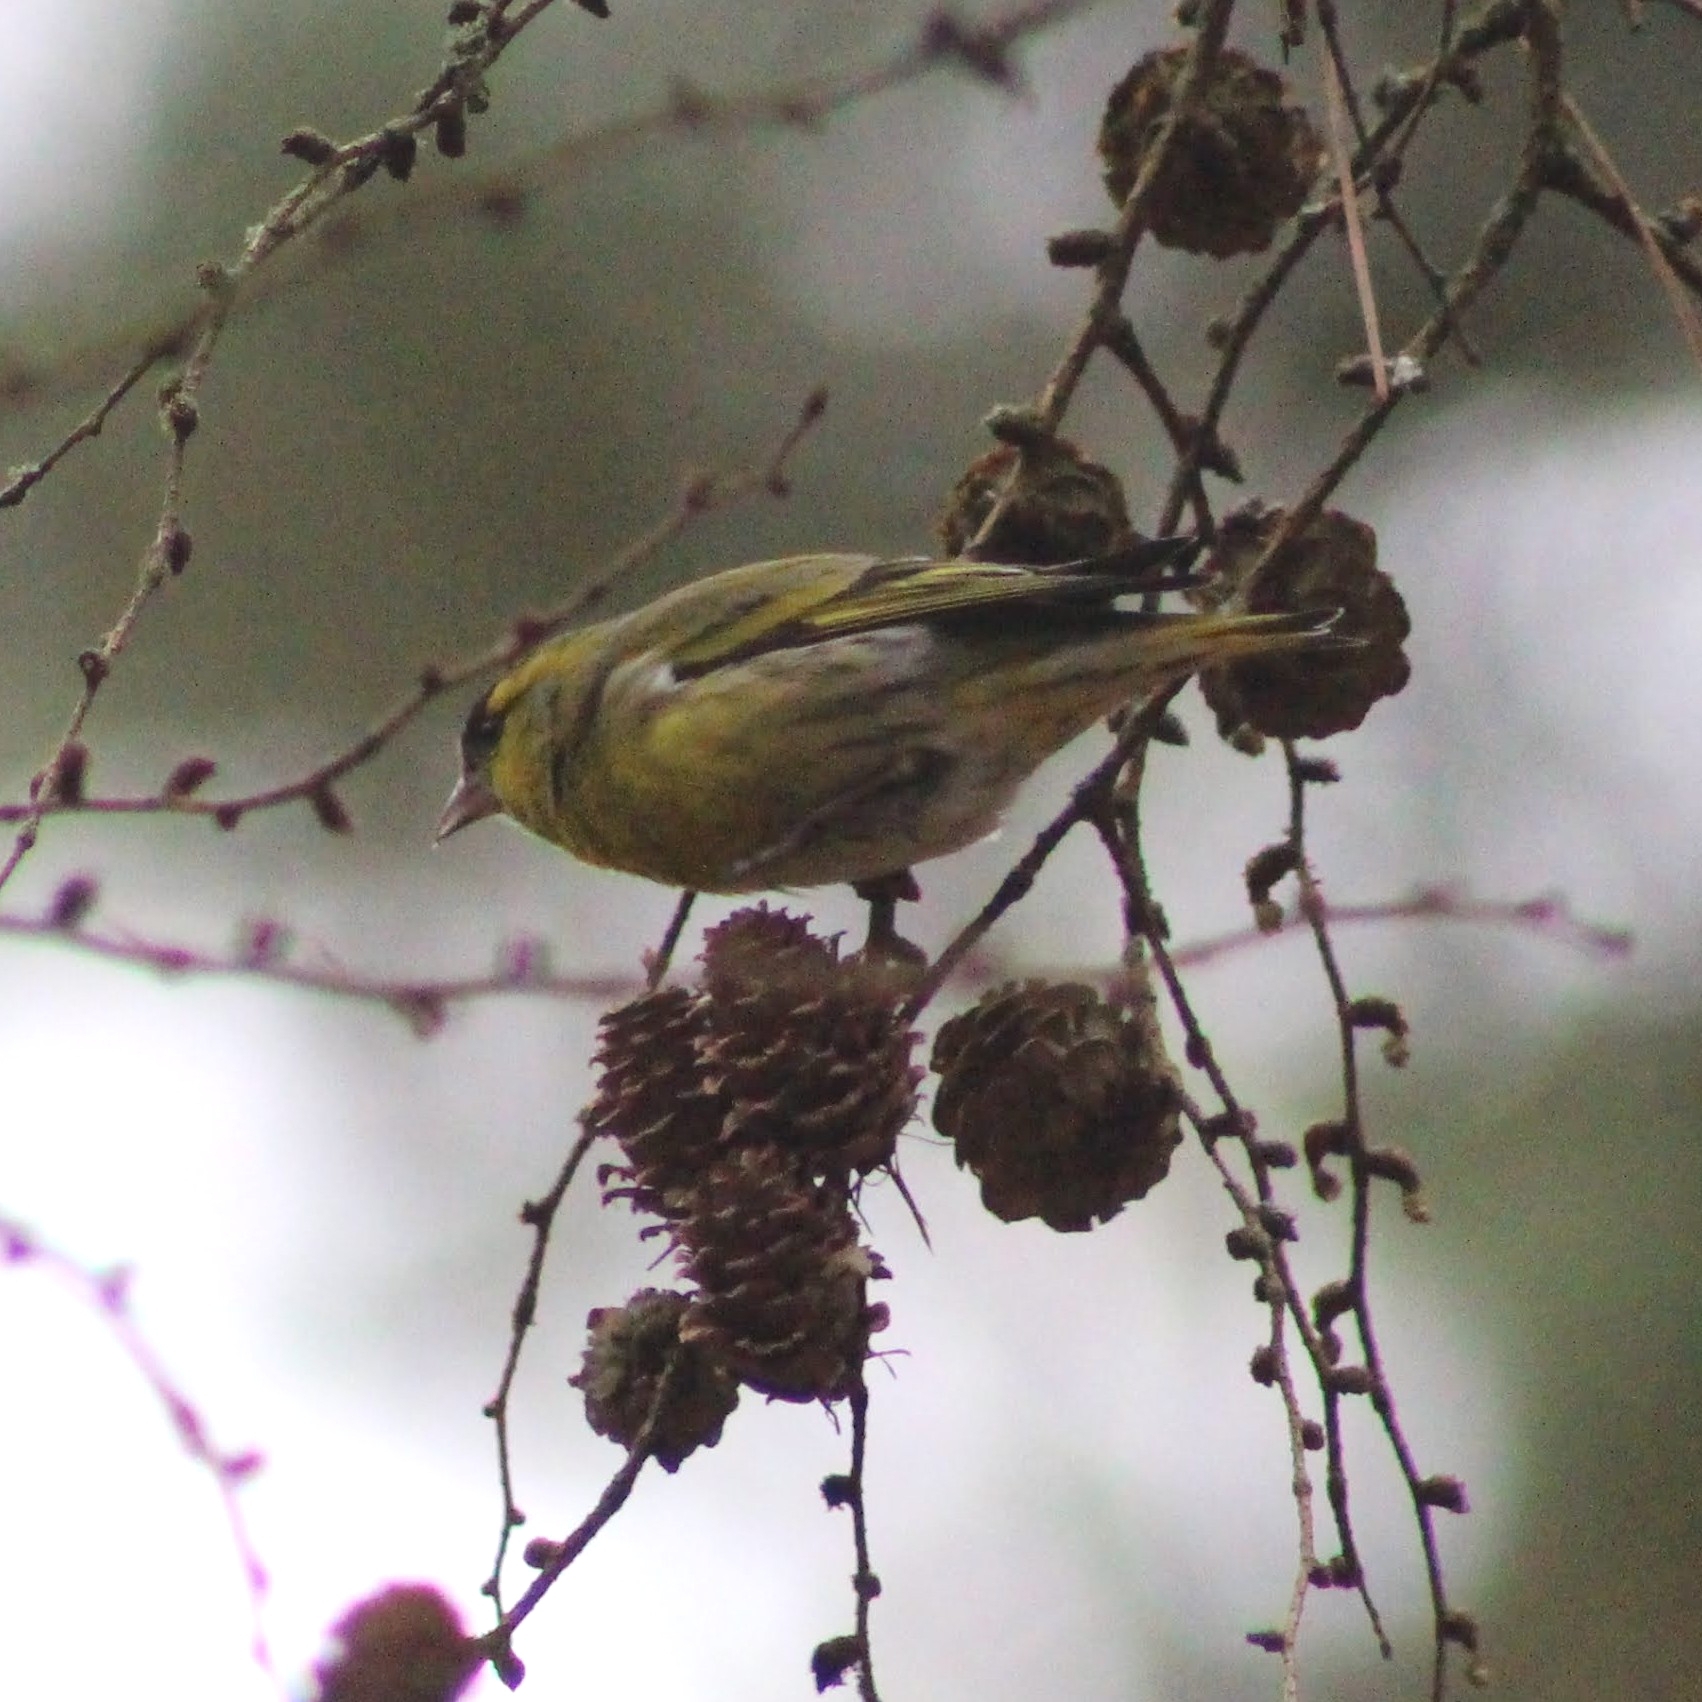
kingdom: Animalia
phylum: Chordata
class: Aves
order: Passeriformes
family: Fringillidae
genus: Spinus
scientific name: Spinus spinus
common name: Eurasian siskin
